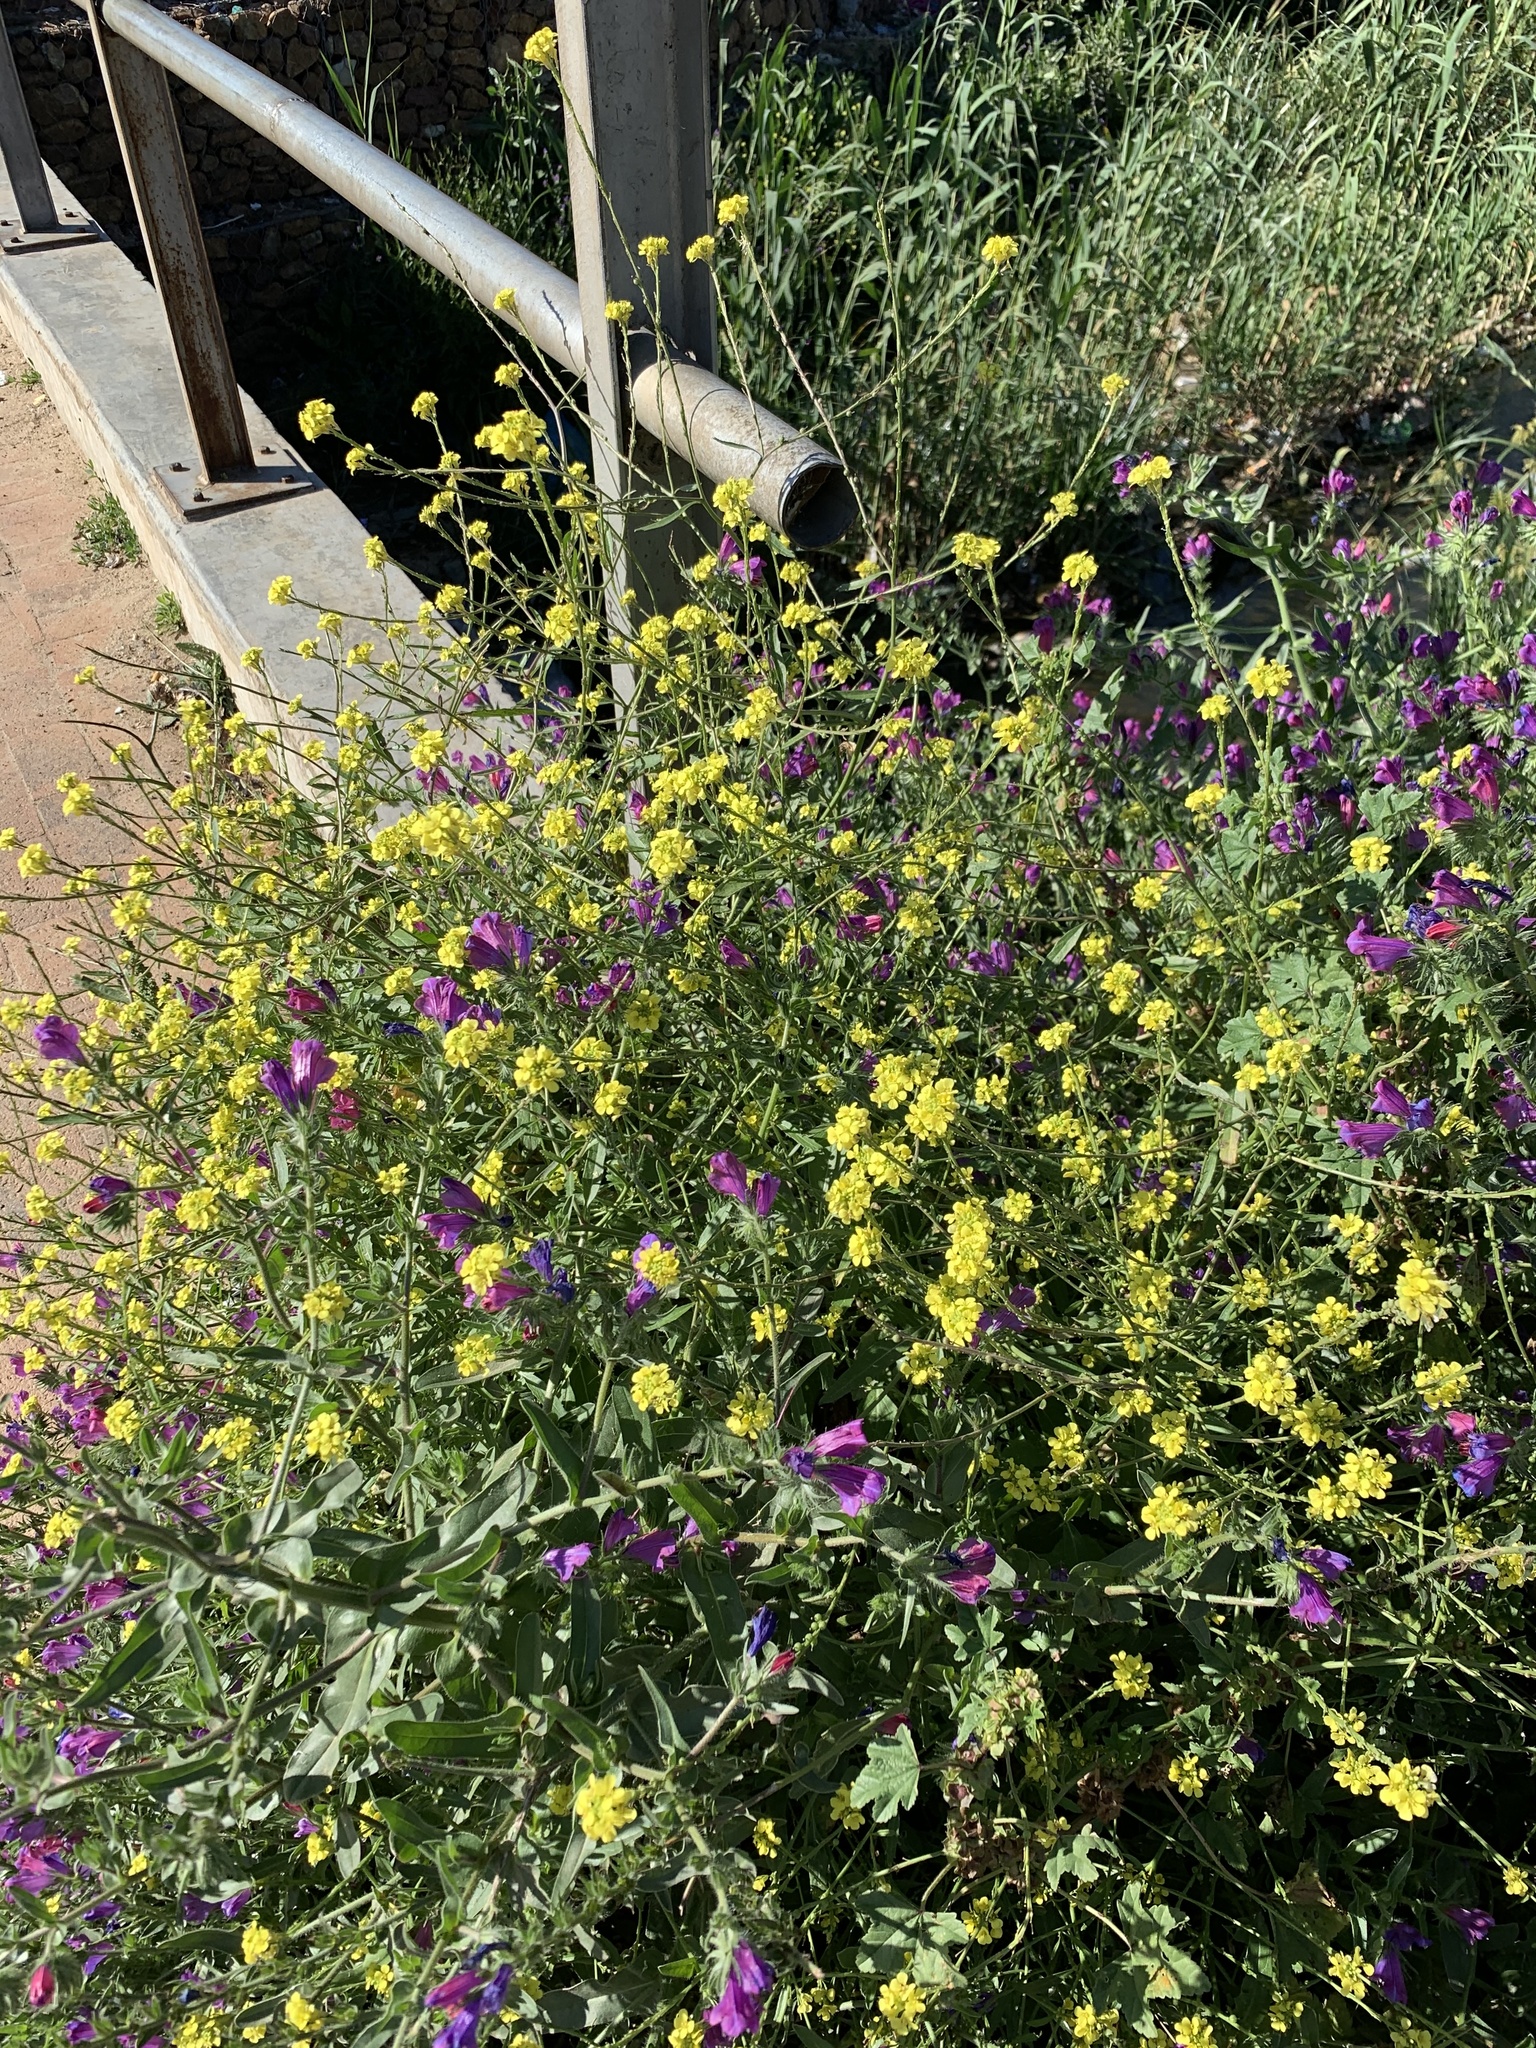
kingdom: Plantae
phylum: Tracheophyta
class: Magnoliopsida
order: Brassicales
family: Brassicaceae
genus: Rapistrum
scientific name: Rapistrum rugosum
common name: Annual bastardcabbage
